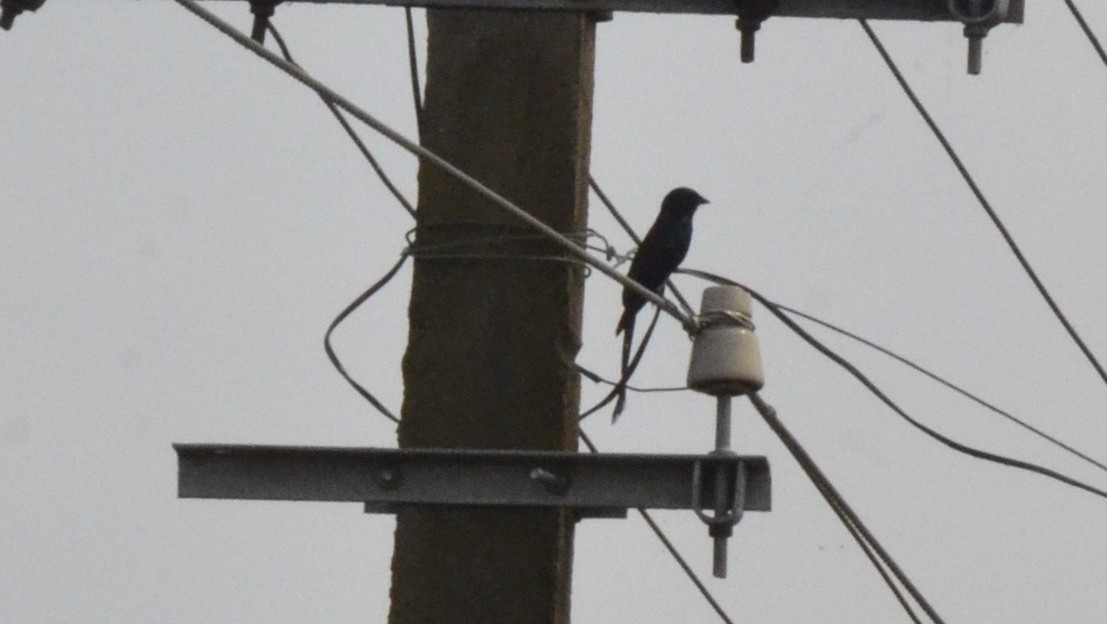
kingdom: Animalia
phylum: Chordata
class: Aves
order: Passeriformes
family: Dicruridae
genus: Dicrurus
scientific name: Dicrurus macrocercus
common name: Black drongo
